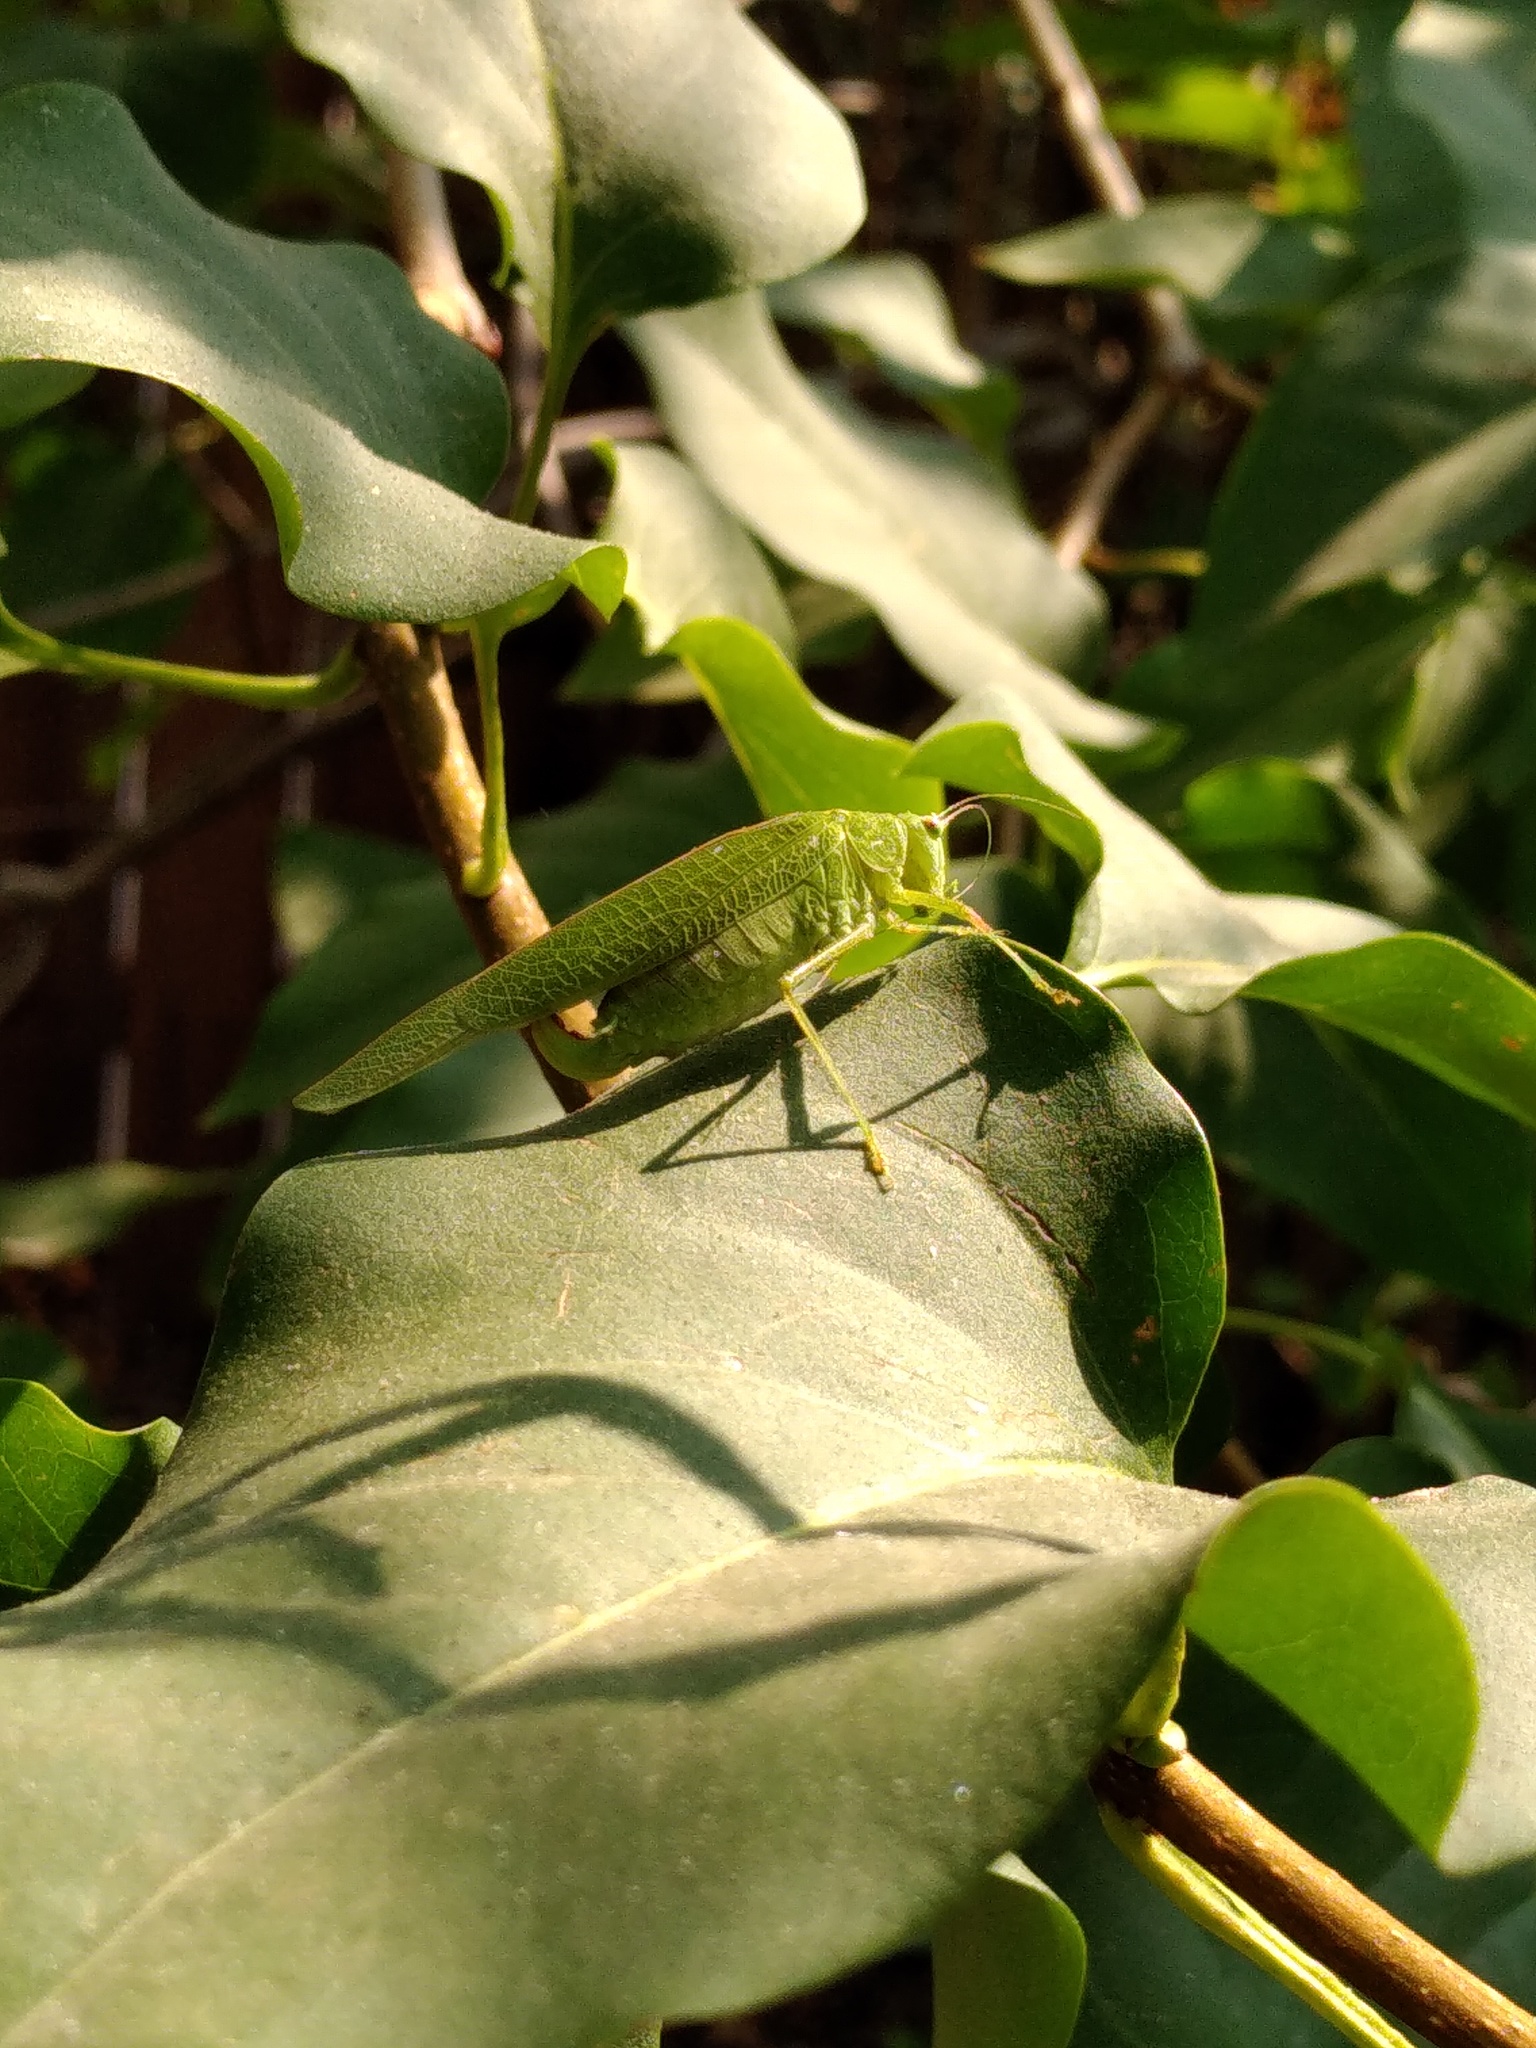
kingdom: Animalia
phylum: Arthropoda
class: Insecta
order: Orthoptera
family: Tettigoniidae
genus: Phaneroptera
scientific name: Phaneroptera nana
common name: Southern sickle bush-cricket
